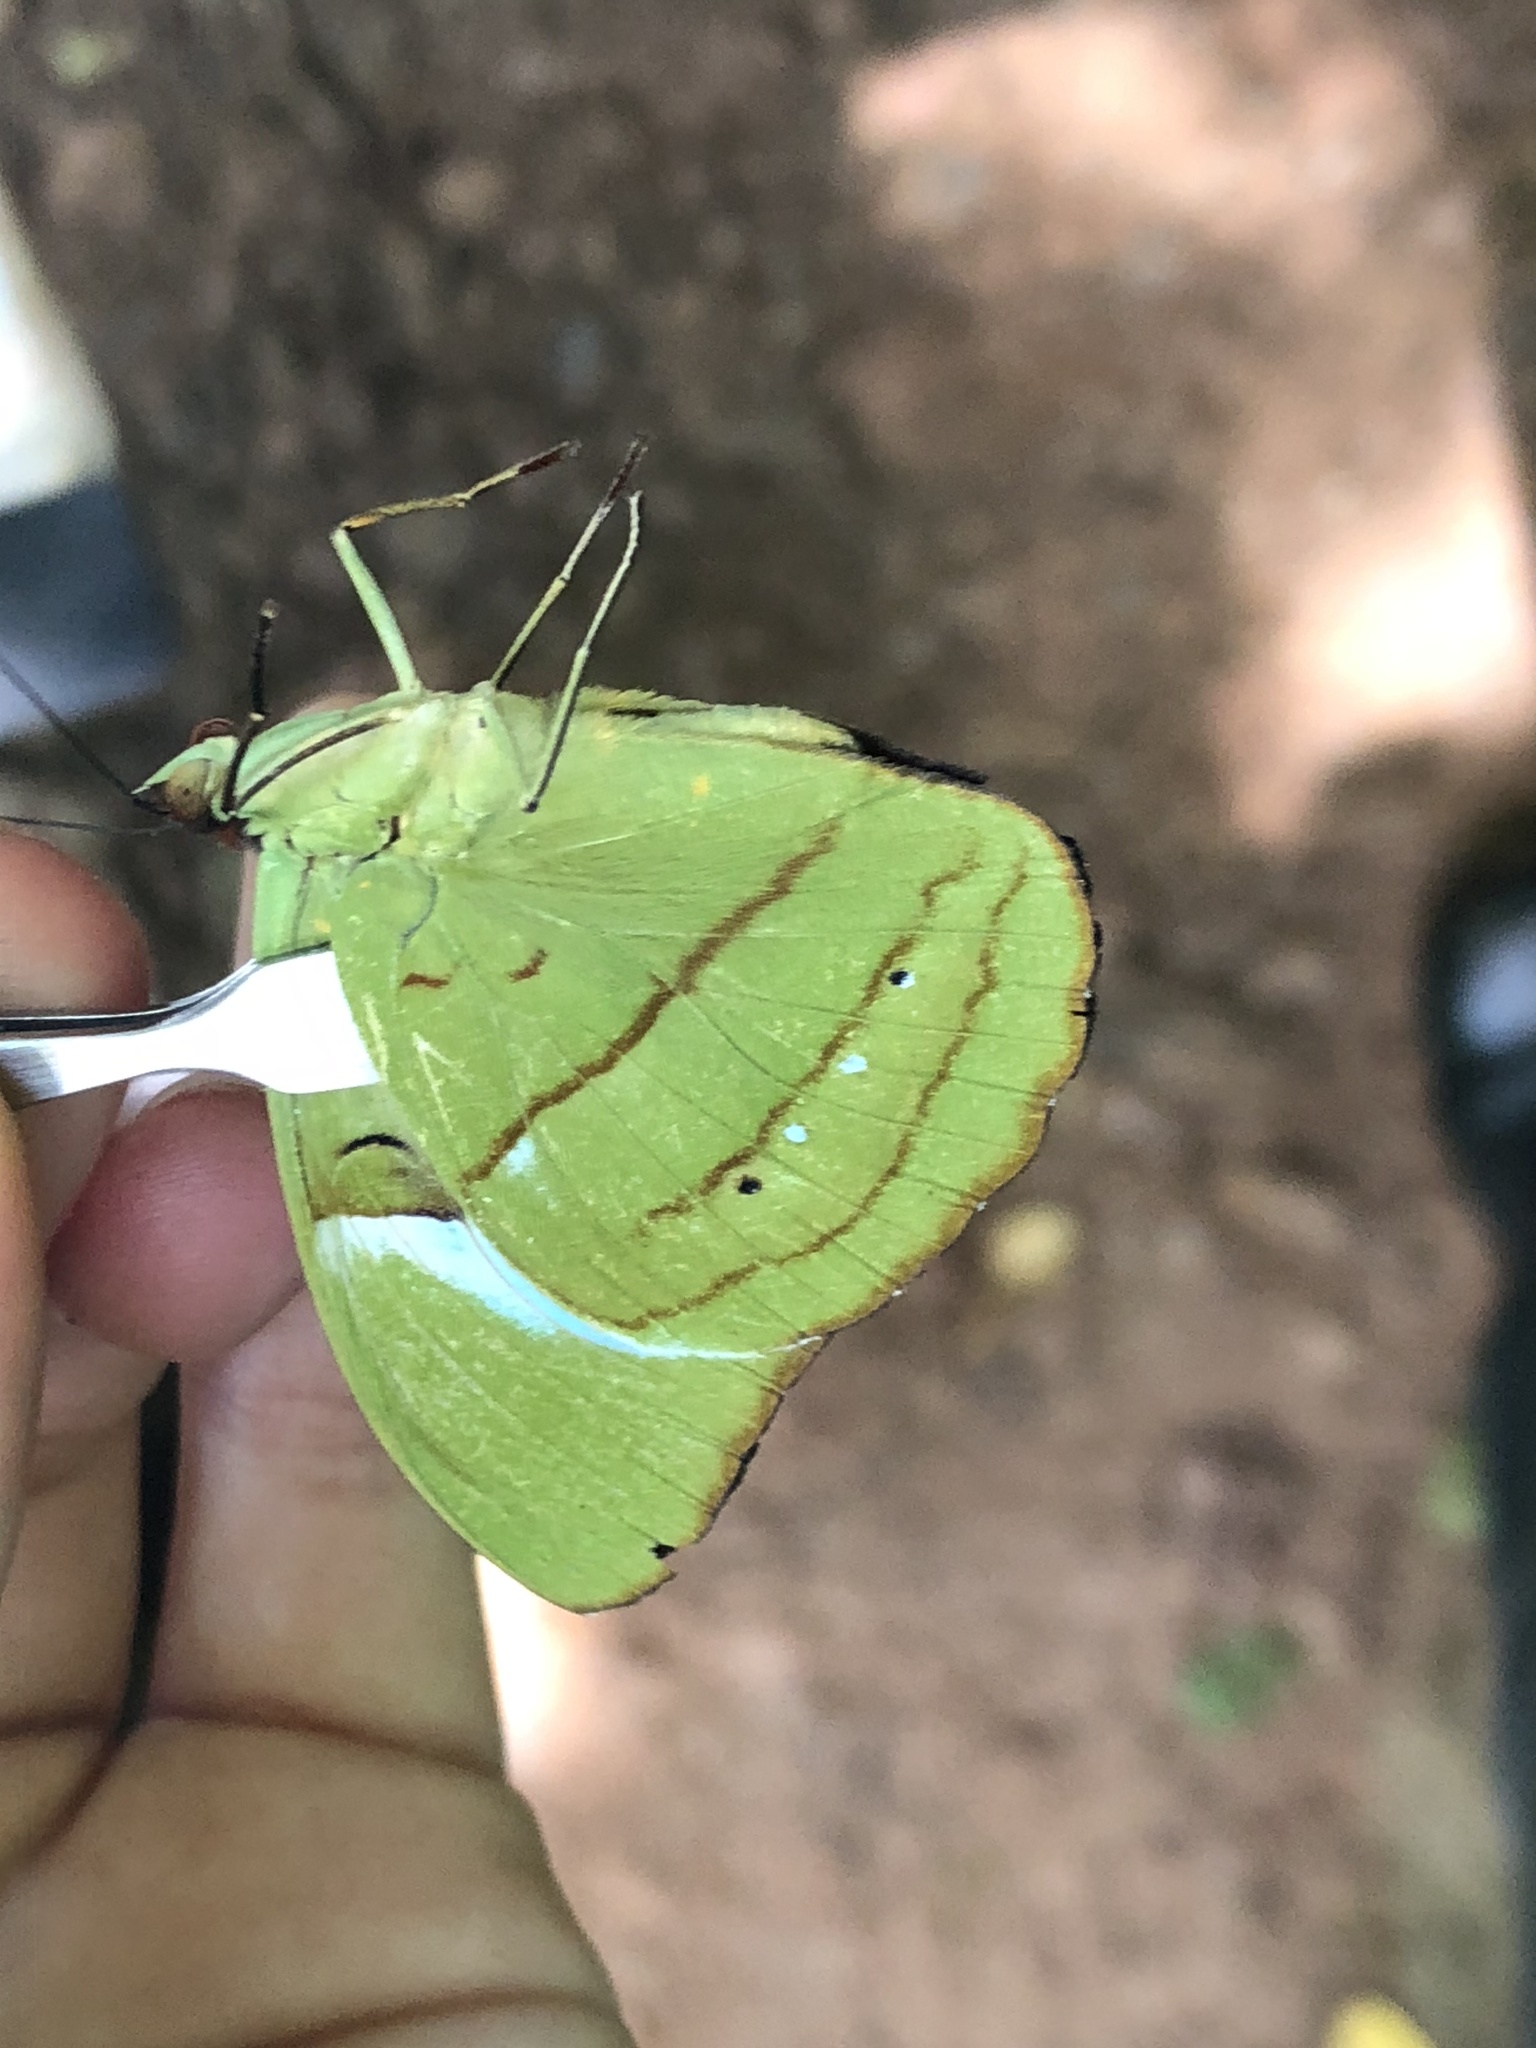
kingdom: Animalia
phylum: Arthropoda
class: Insecta
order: Lepidoptera
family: Nymphalidae
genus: Nessaea
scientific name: Nessaea hewitsonii
